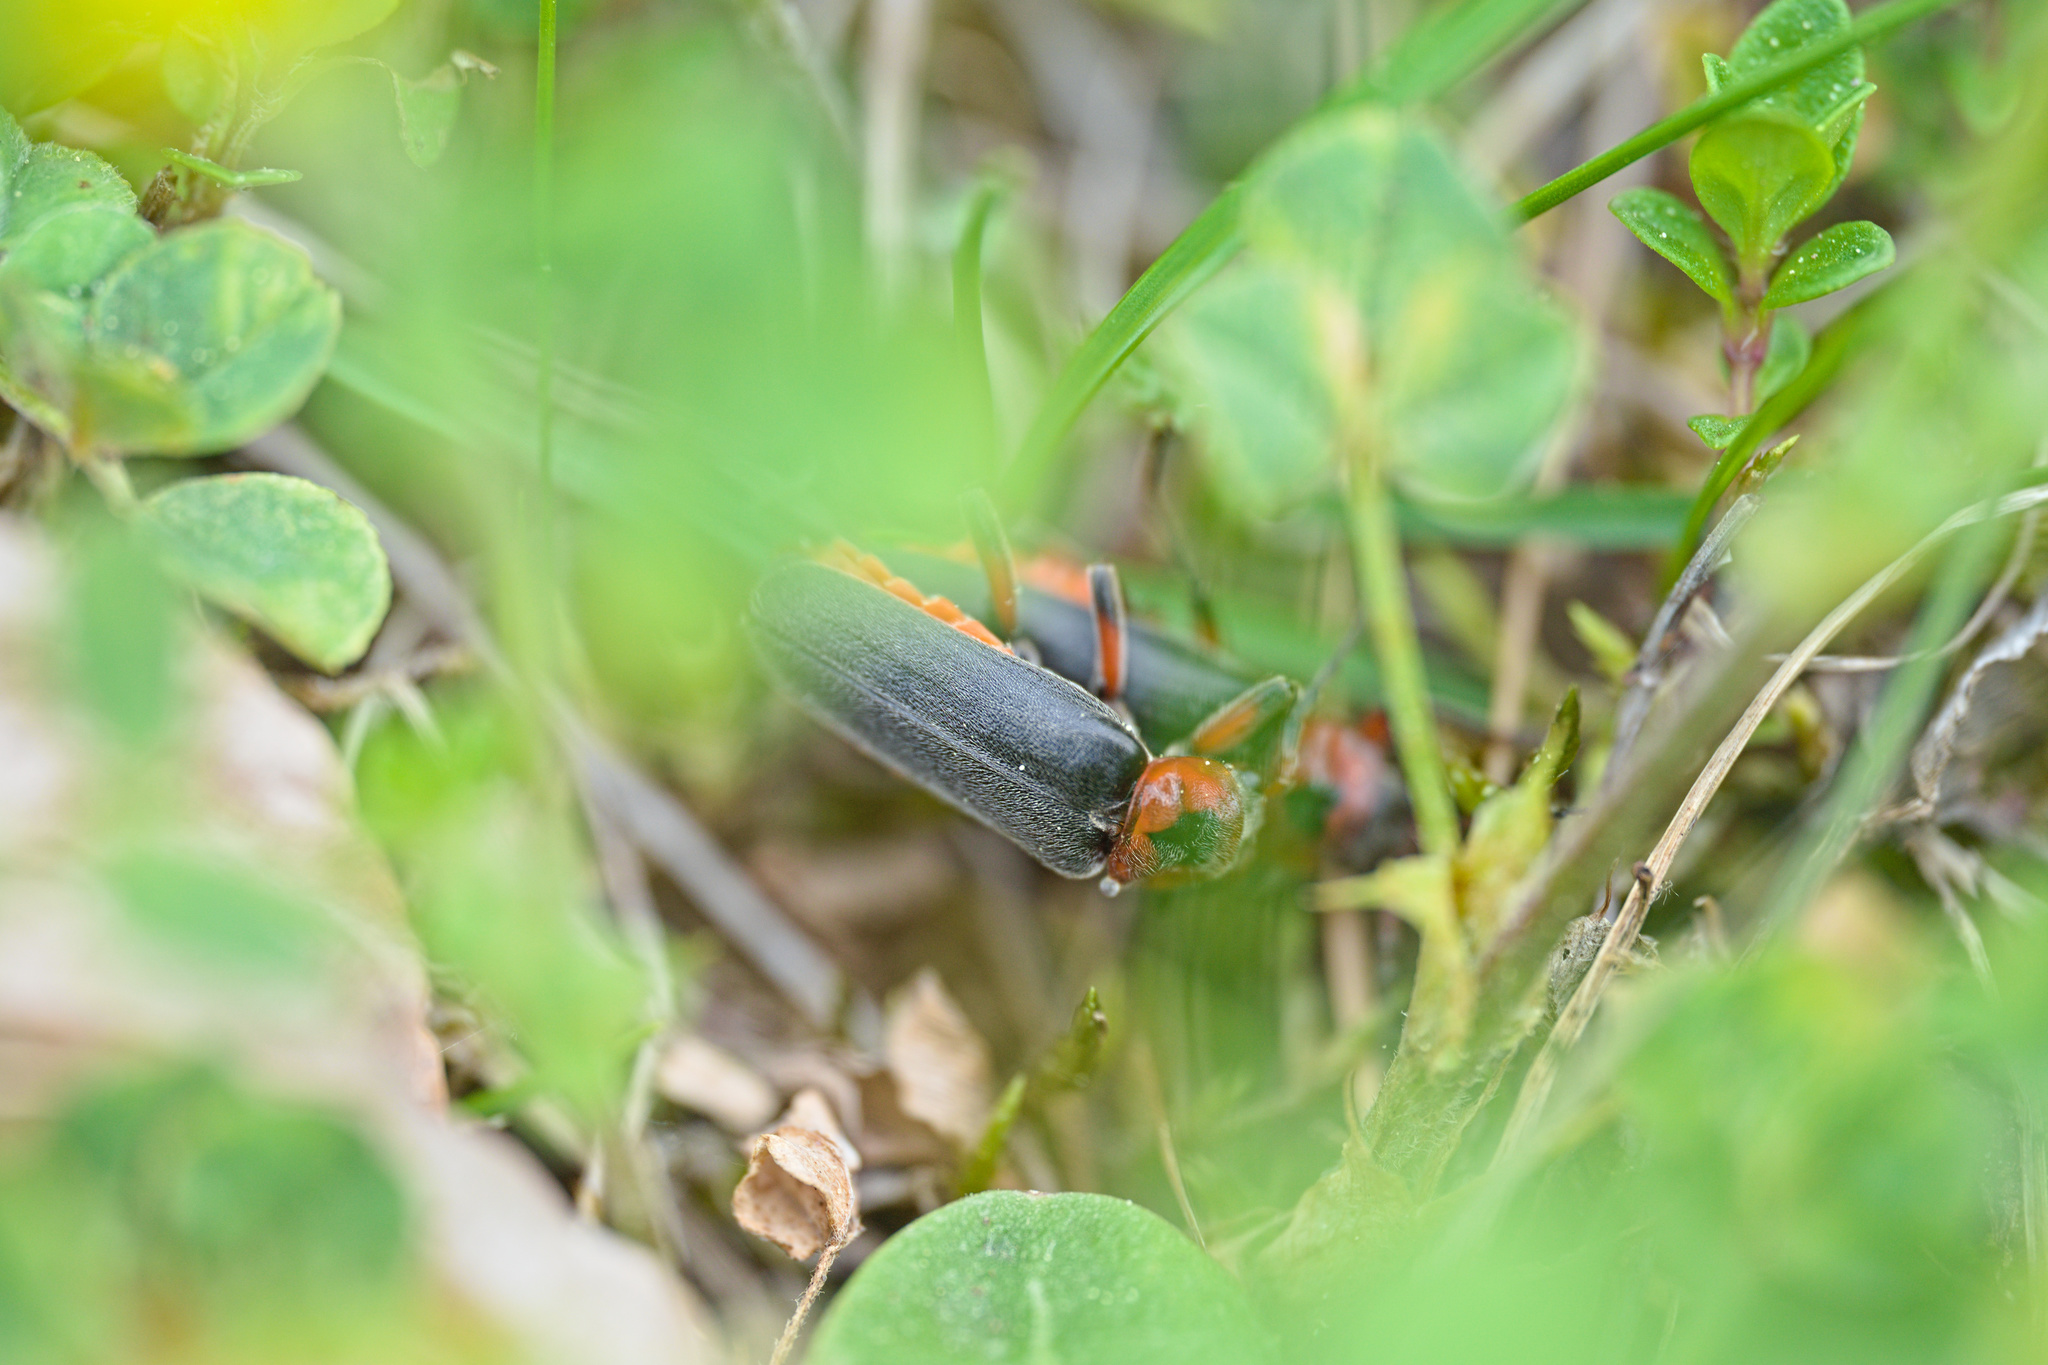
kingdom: Animalia
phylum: Arthropoda
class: Insecta
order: Coleoptera
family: Cantharidae
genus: Cantharis
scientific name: Cantharis rustica
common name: Soldier beetle
